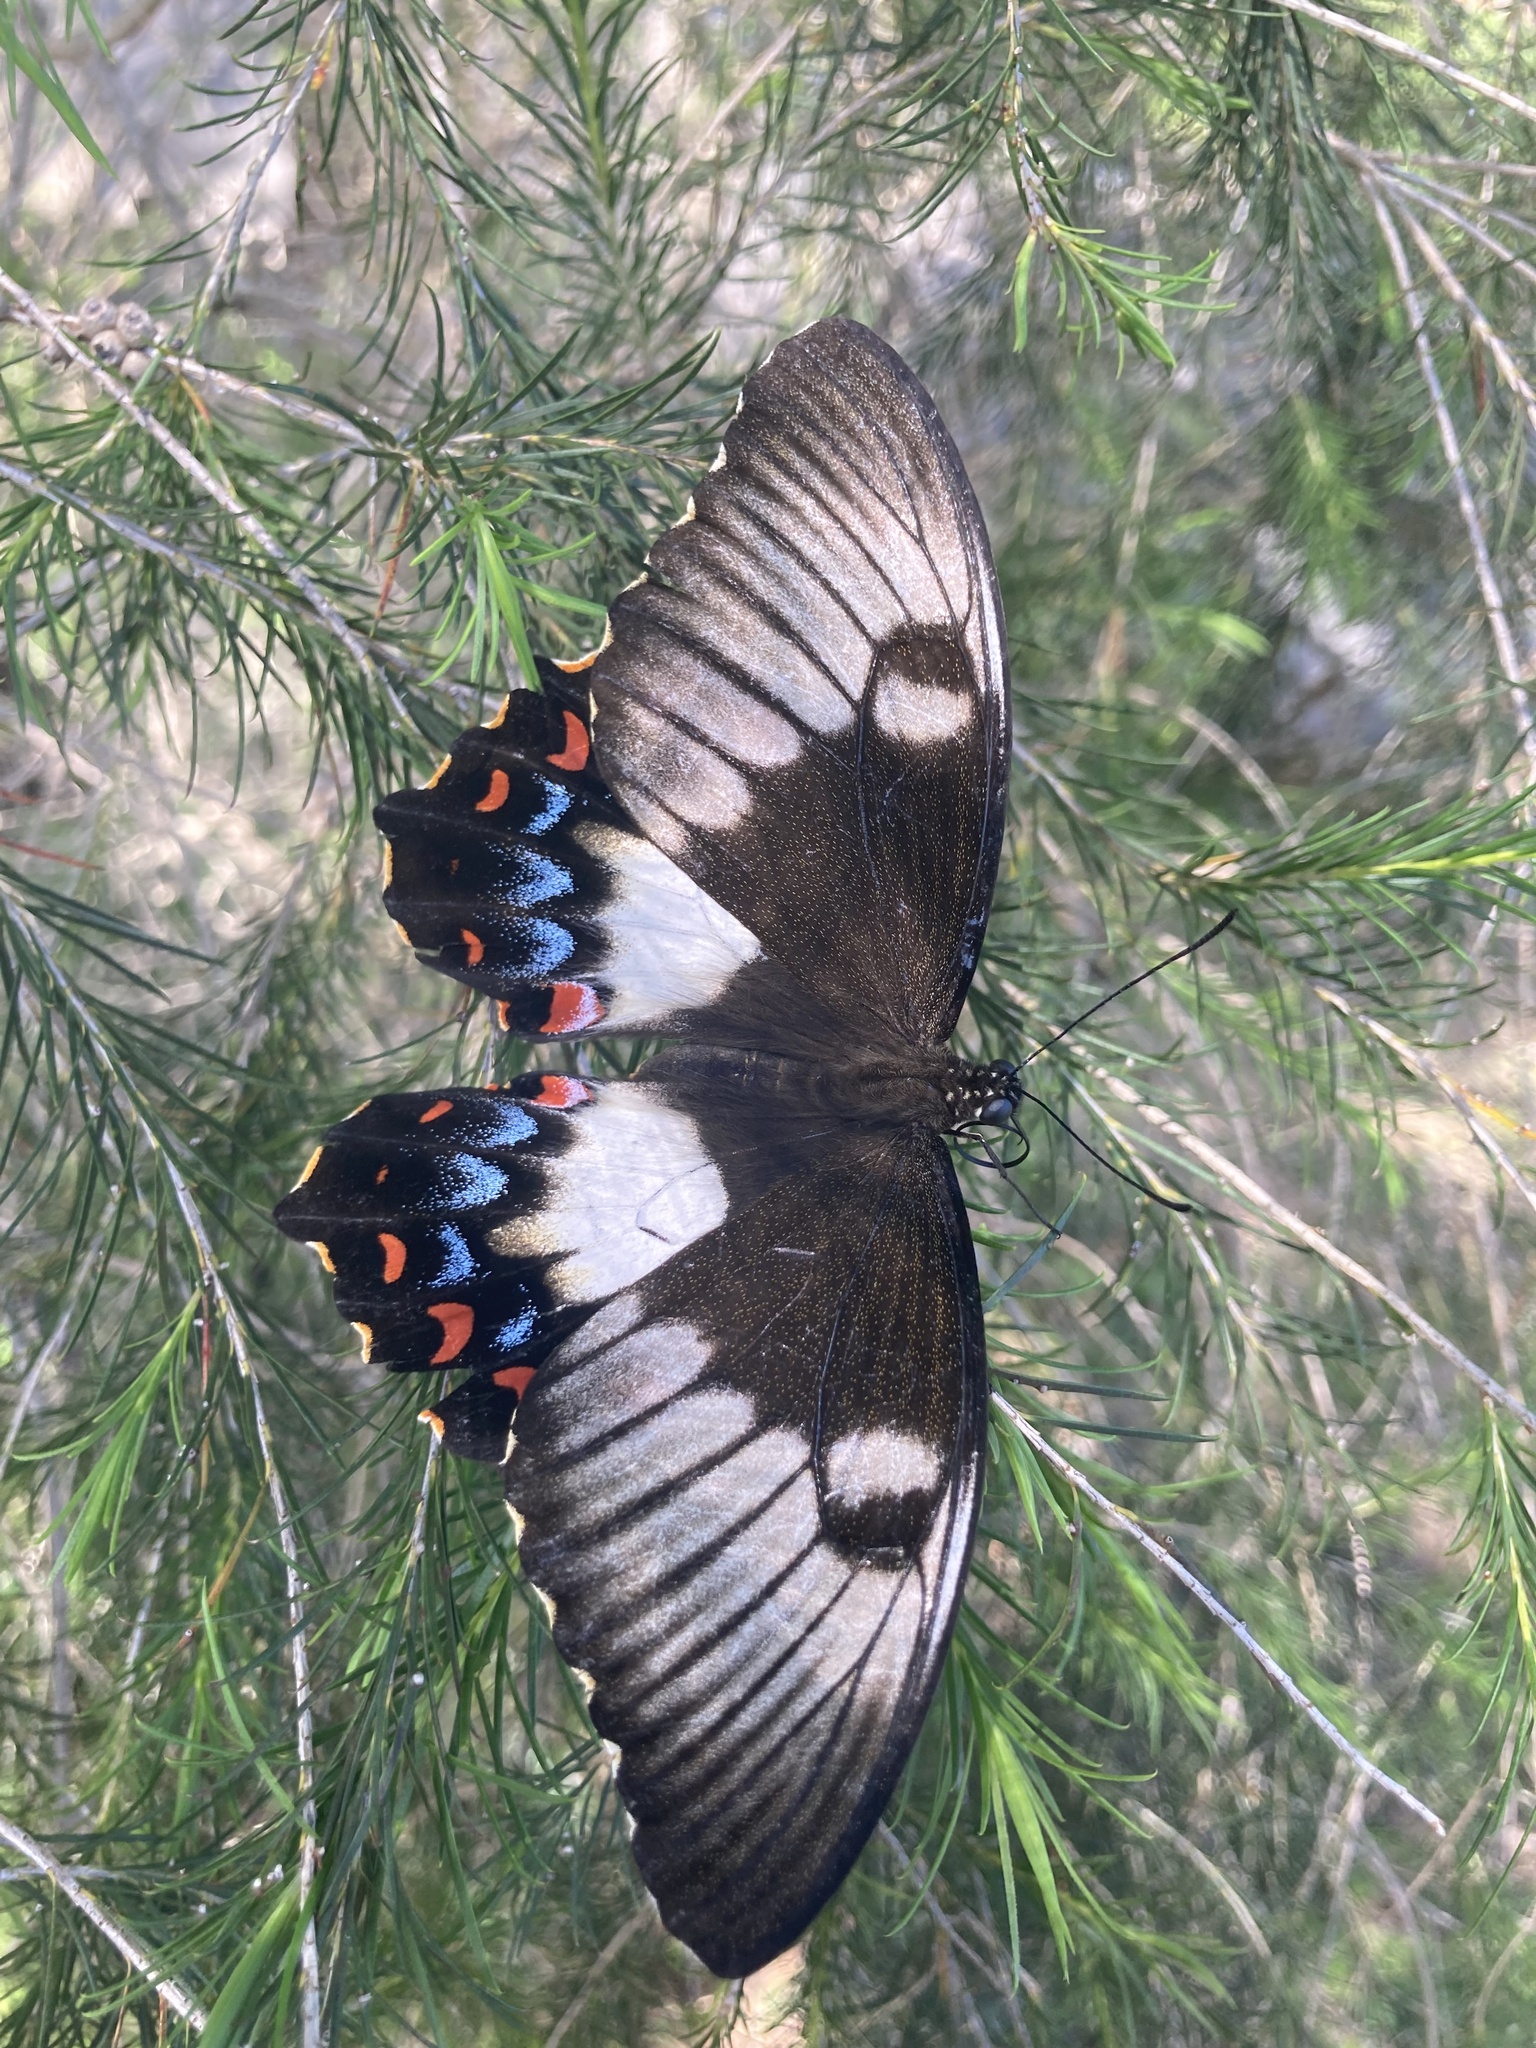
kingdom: Animalia
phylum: Arthropoda
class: Insecta
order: Lepidoptera
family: Papilionidae
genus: Papilio
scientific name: Papilio aegeus
